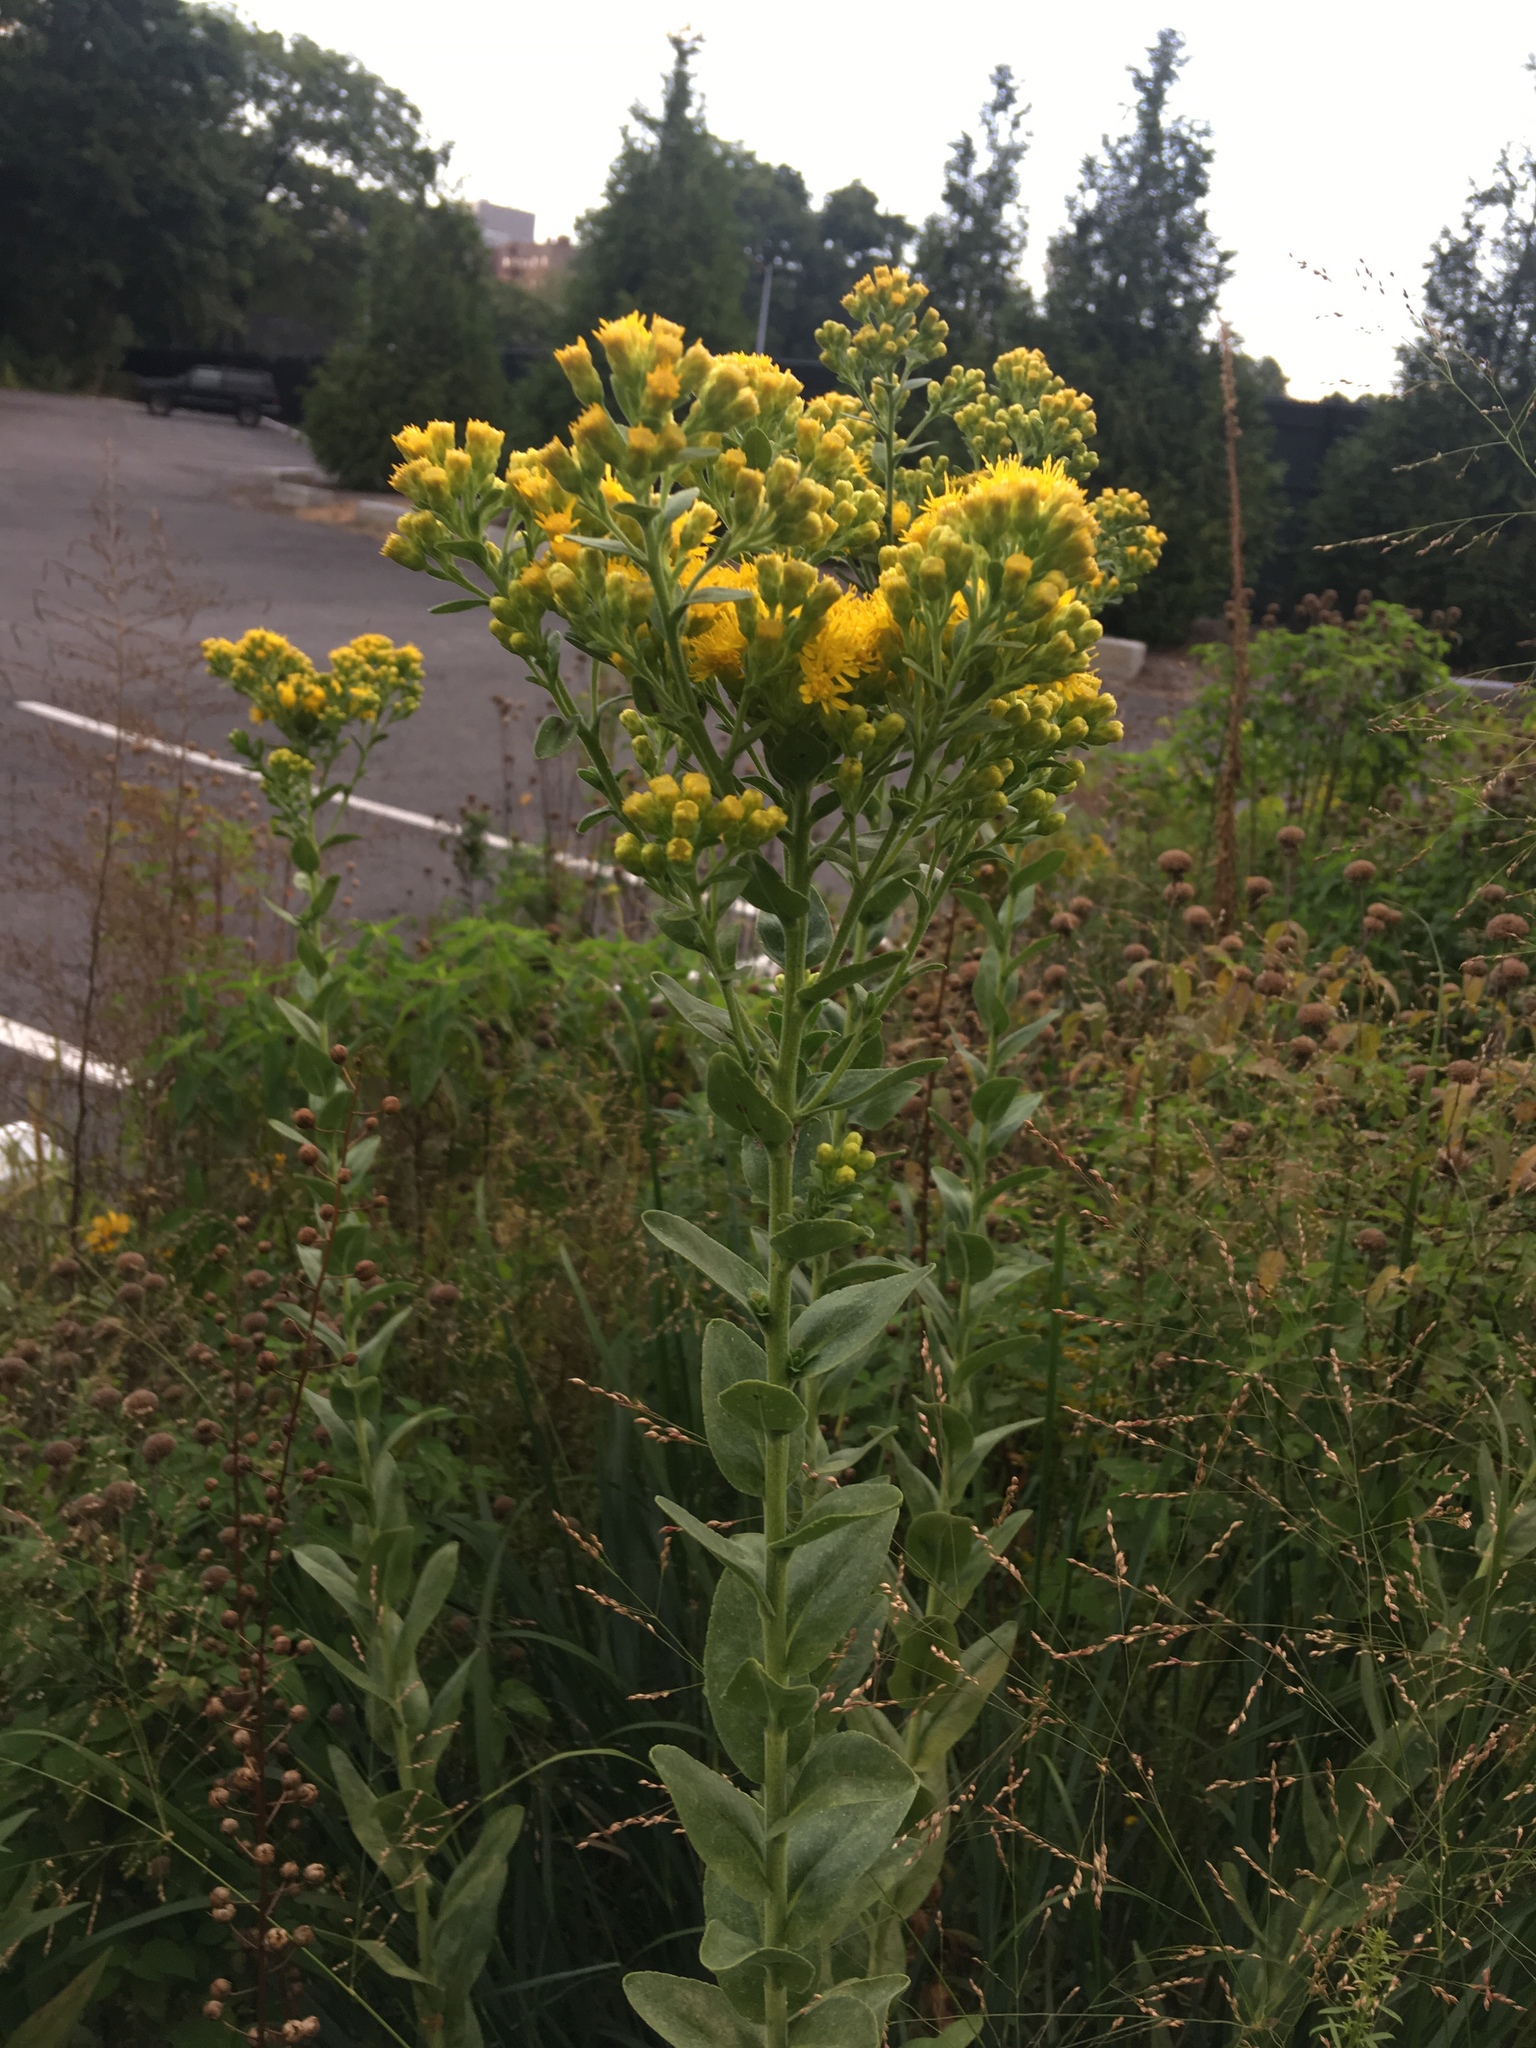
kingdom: Plantae
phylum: Tracheophyta
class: Magnoliopsida
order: Asterales
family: Asteraceae
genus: Solidago
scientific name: Solidago rigida
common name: Rigid goldenrod
